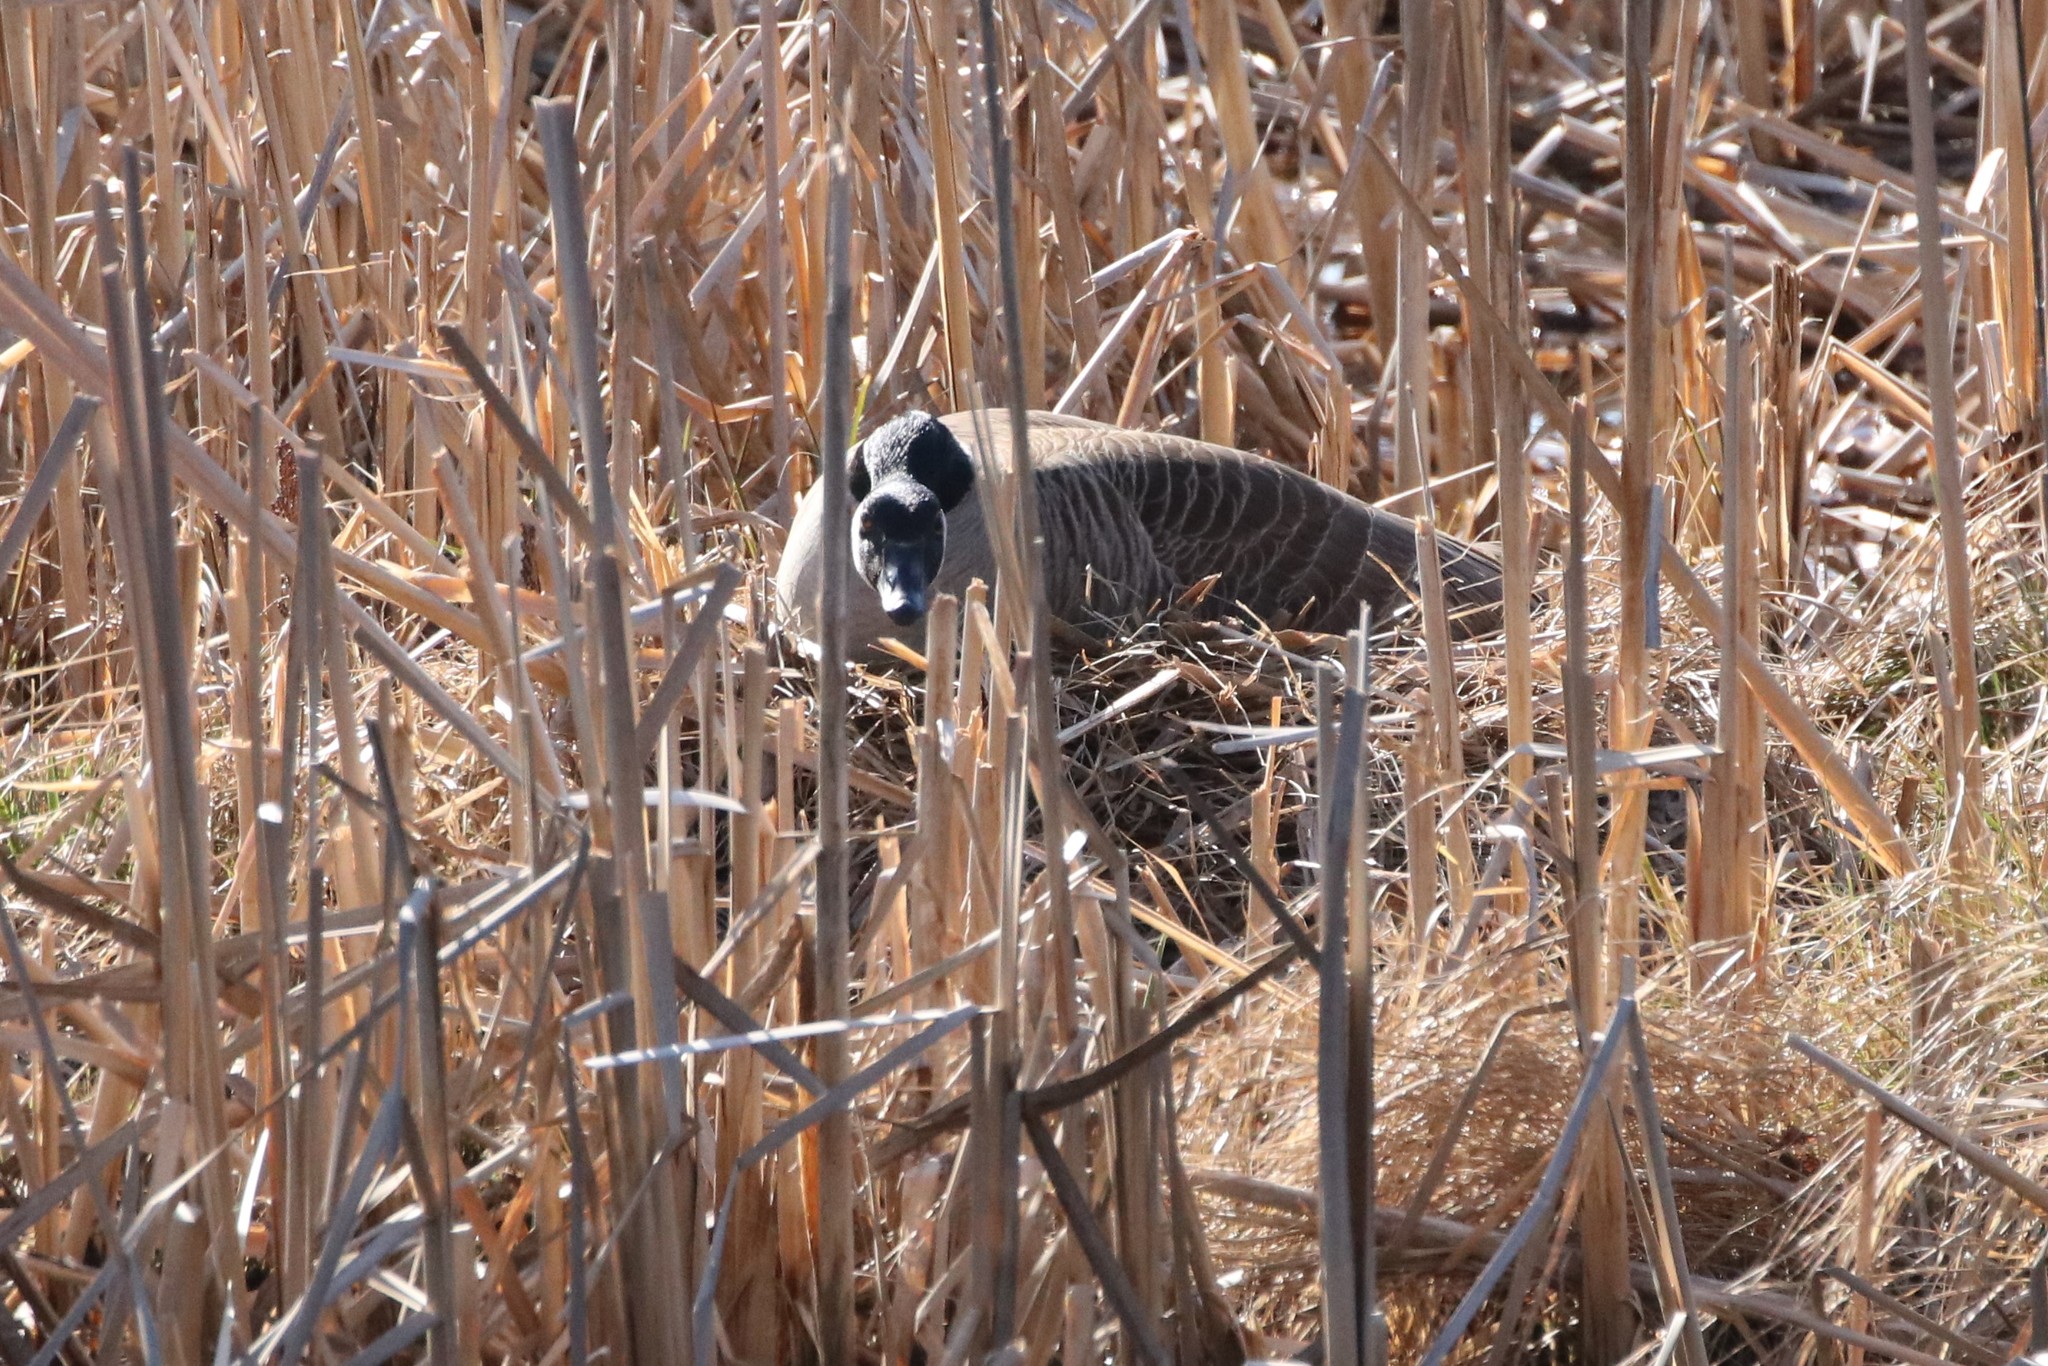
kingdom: Animalia
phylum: Chordata
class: Aves
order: Anseriformes
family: Anatidae
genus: Branta
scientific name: Branta canadensis
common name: Canada goose
